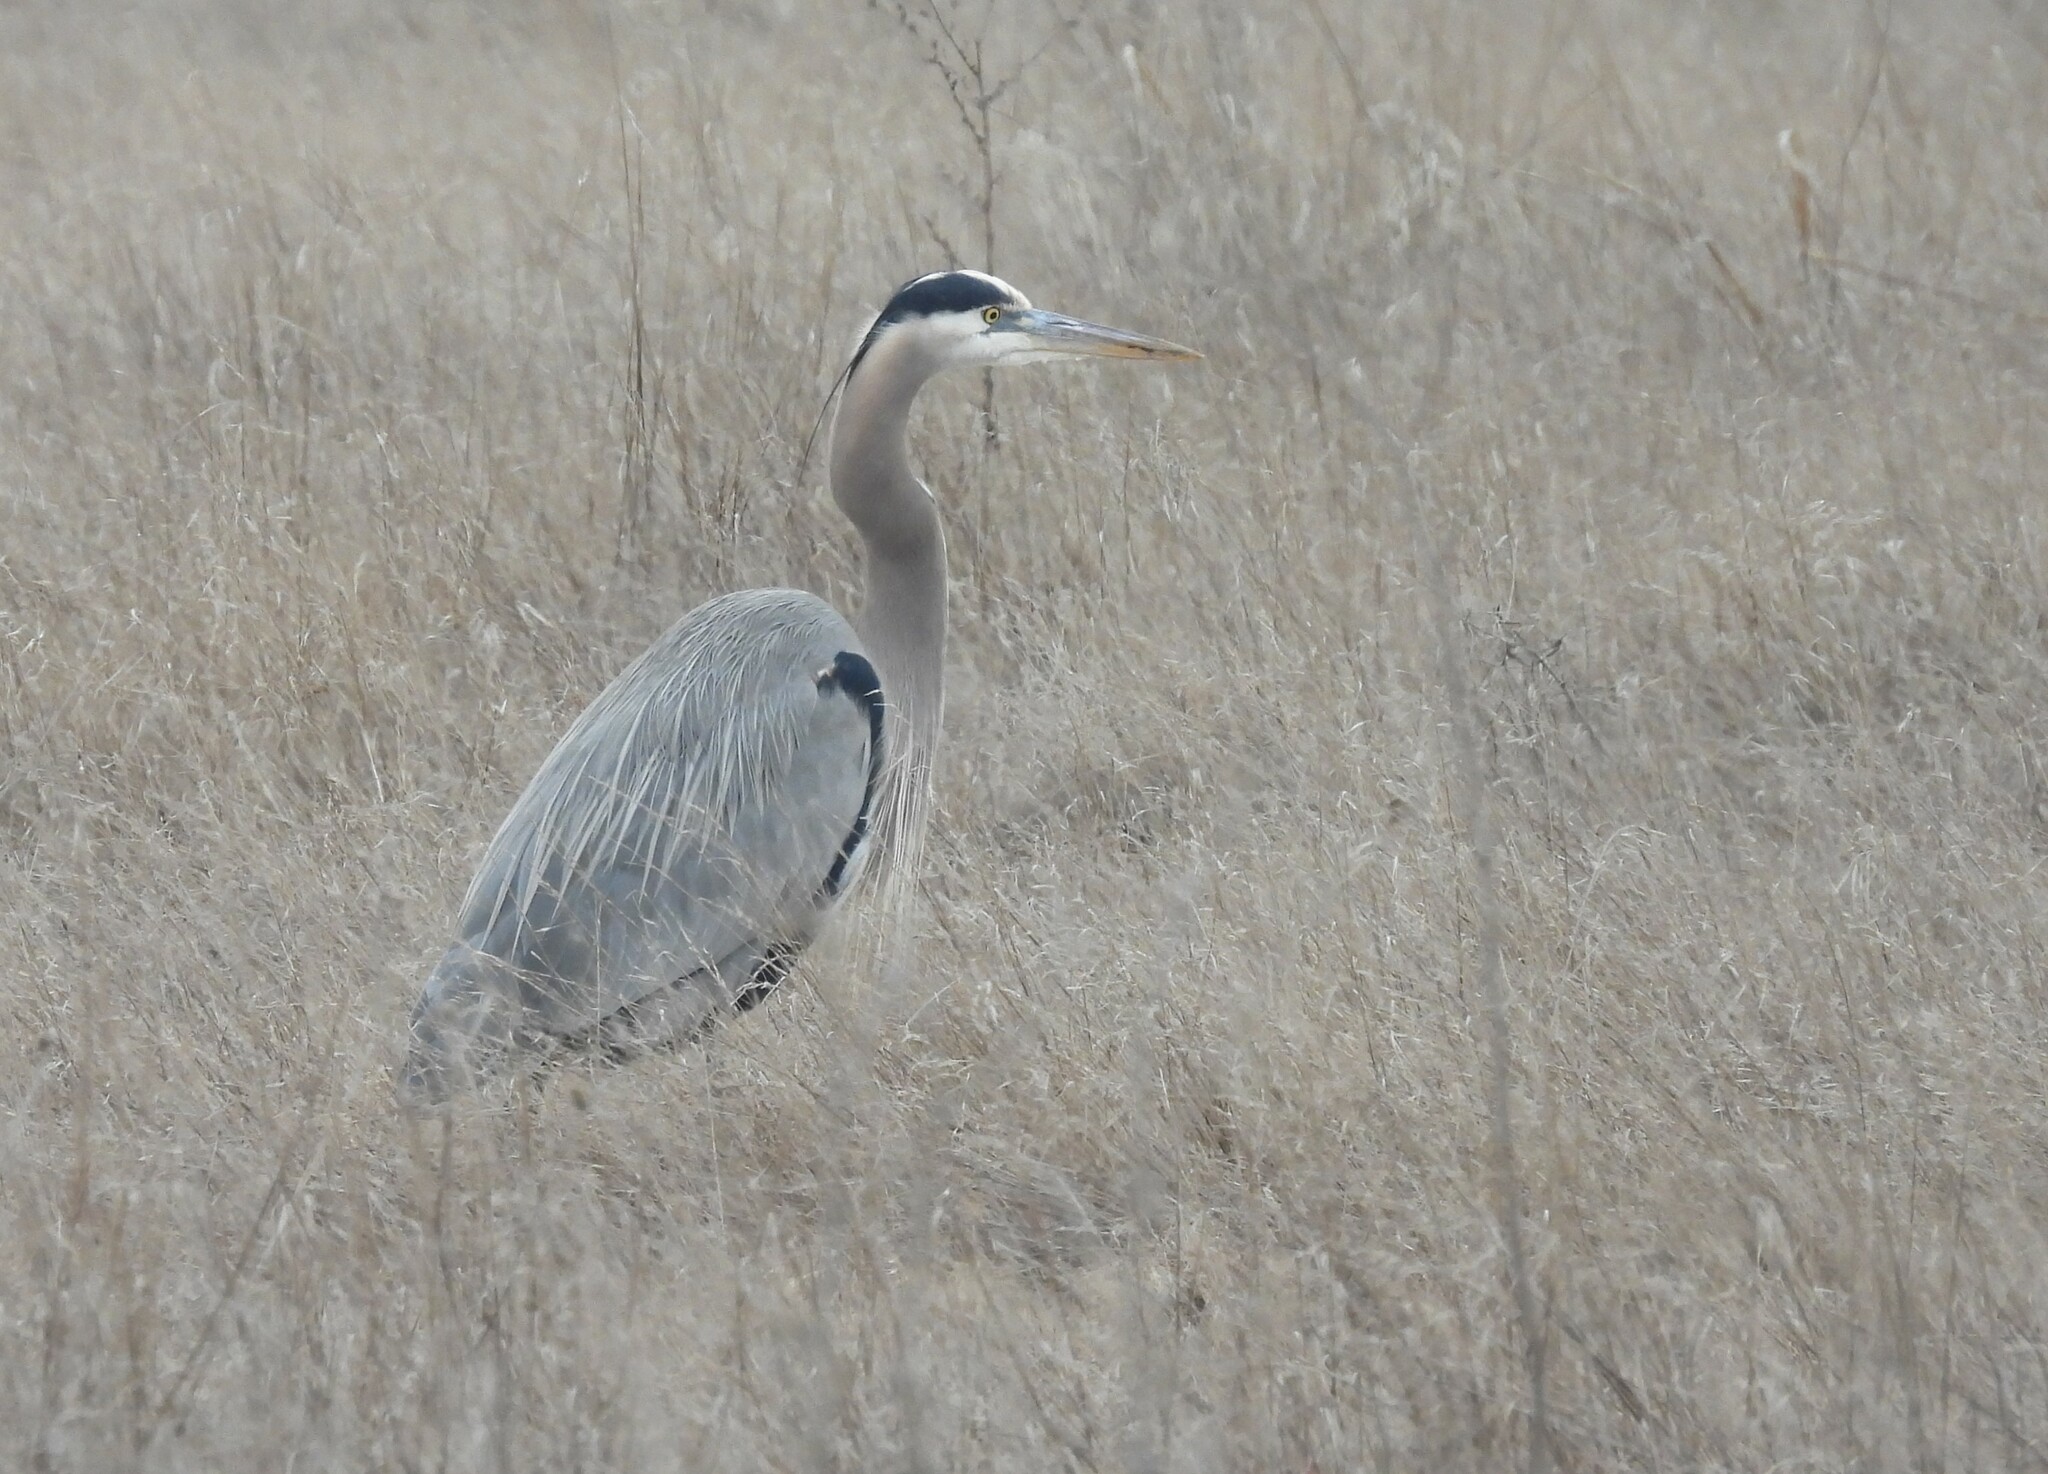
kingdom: Animalia
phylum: Chordata
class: Aves
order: Pelecaniformes
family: Ardeidae
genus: Ardea
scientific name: Ardea herodias
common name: Great blue heron
